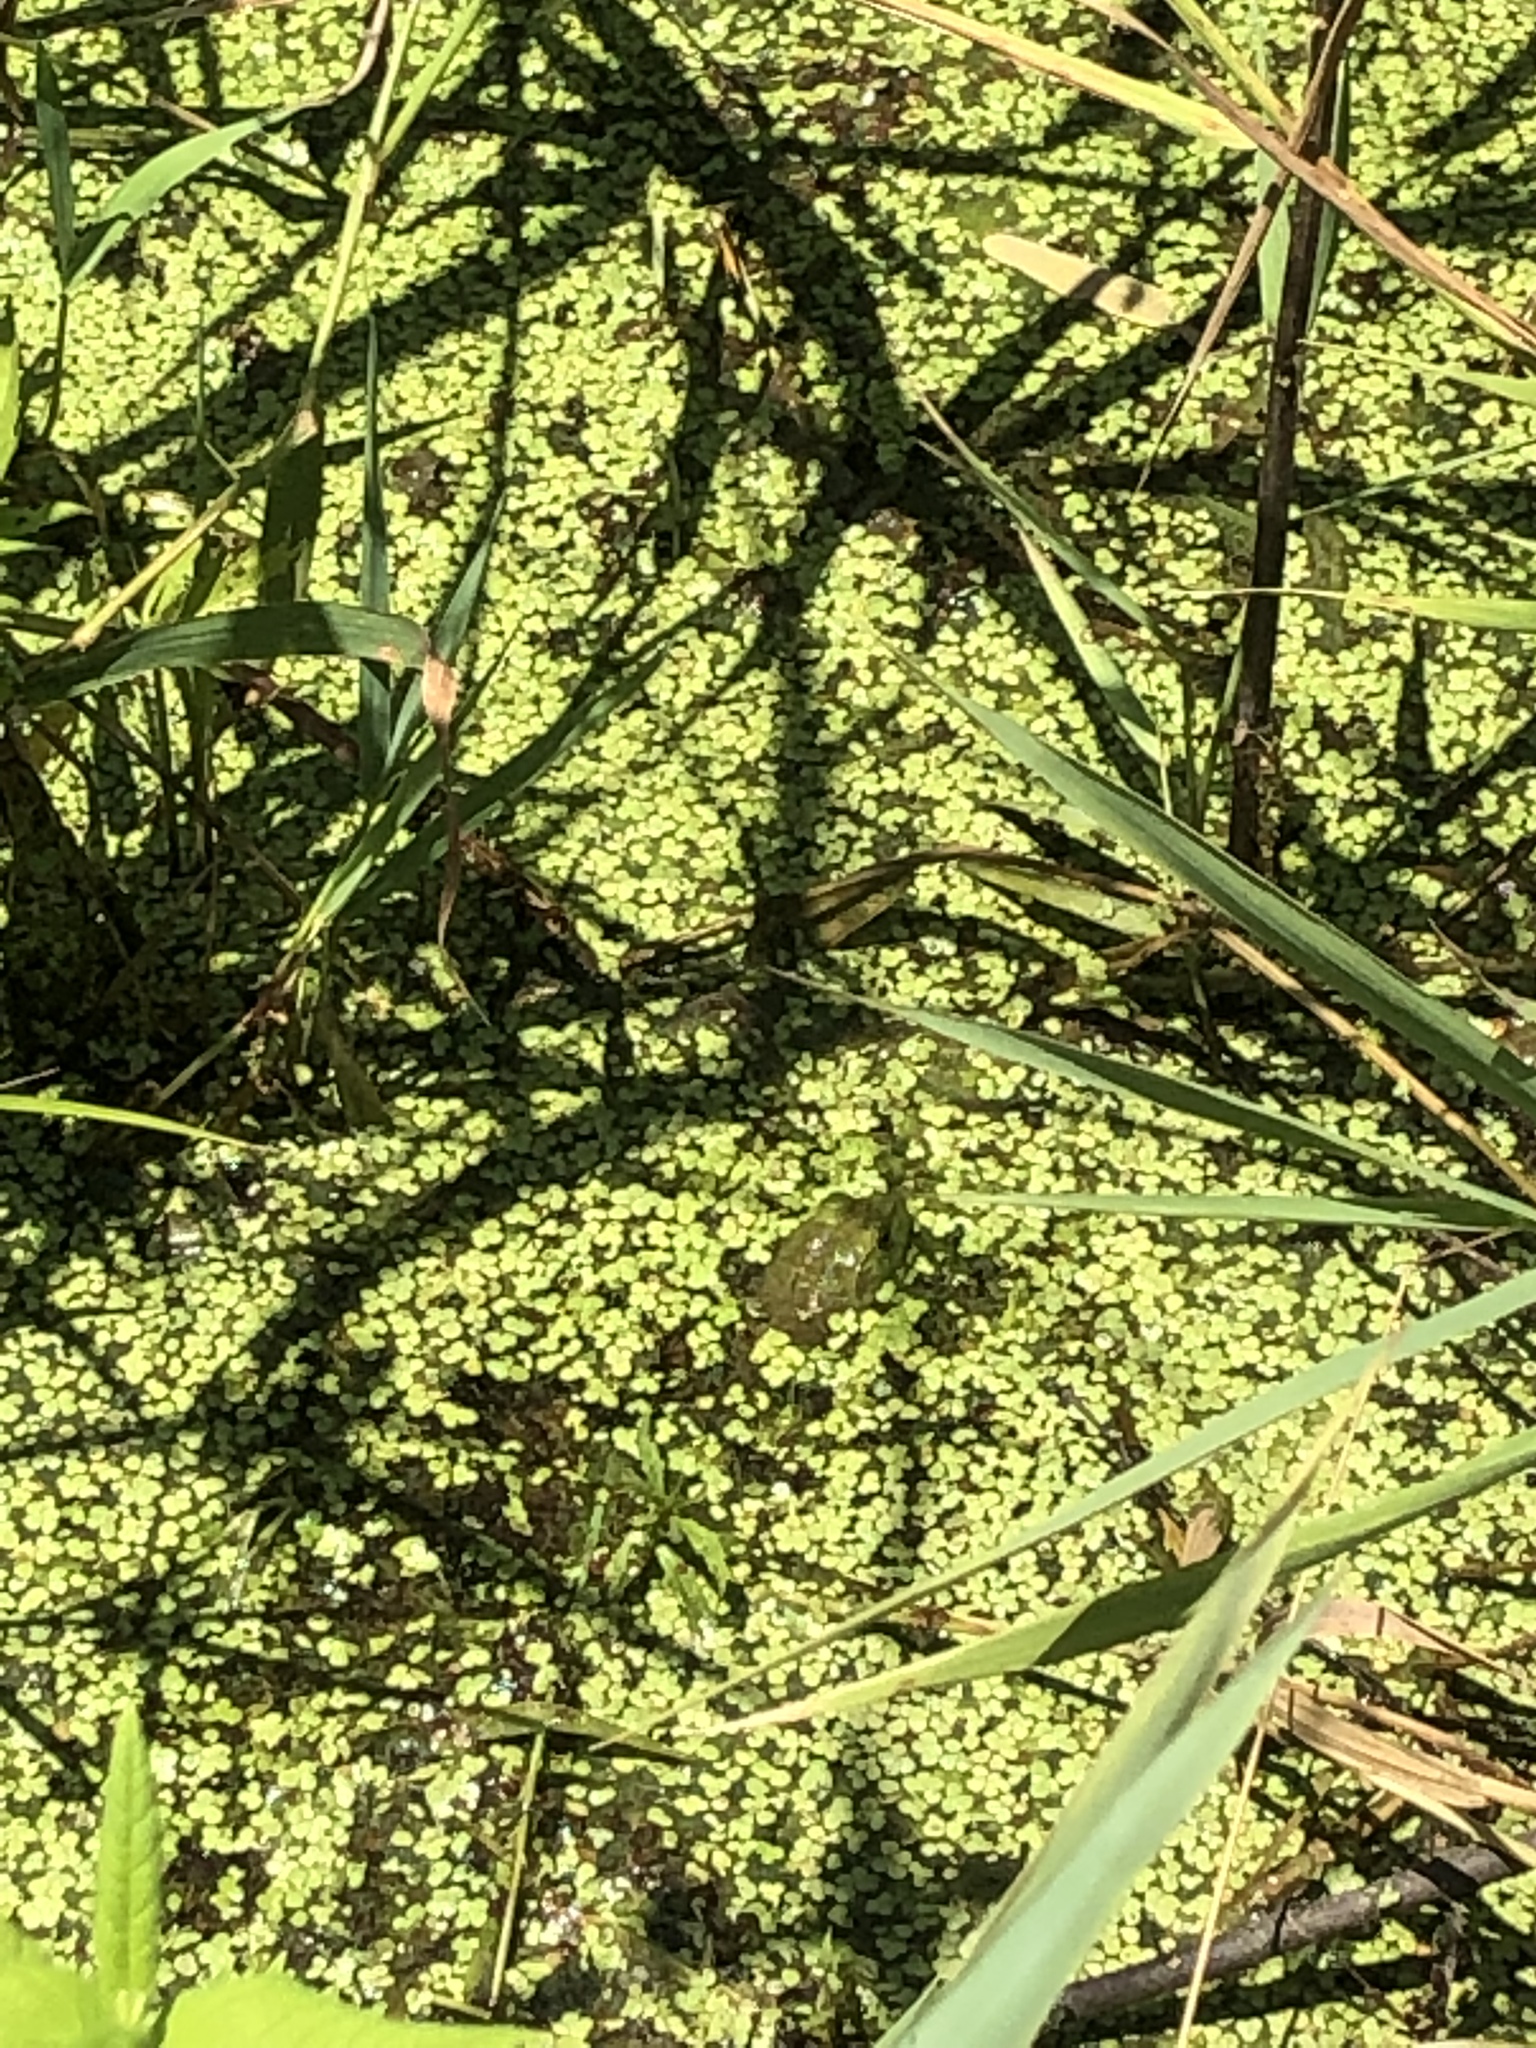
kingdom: Animalia
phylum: Chordata
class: Amphibia
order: Anura
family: Ranidae
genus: Lithobates
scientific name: Lithobates catesbeianus
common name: American bullfrog
